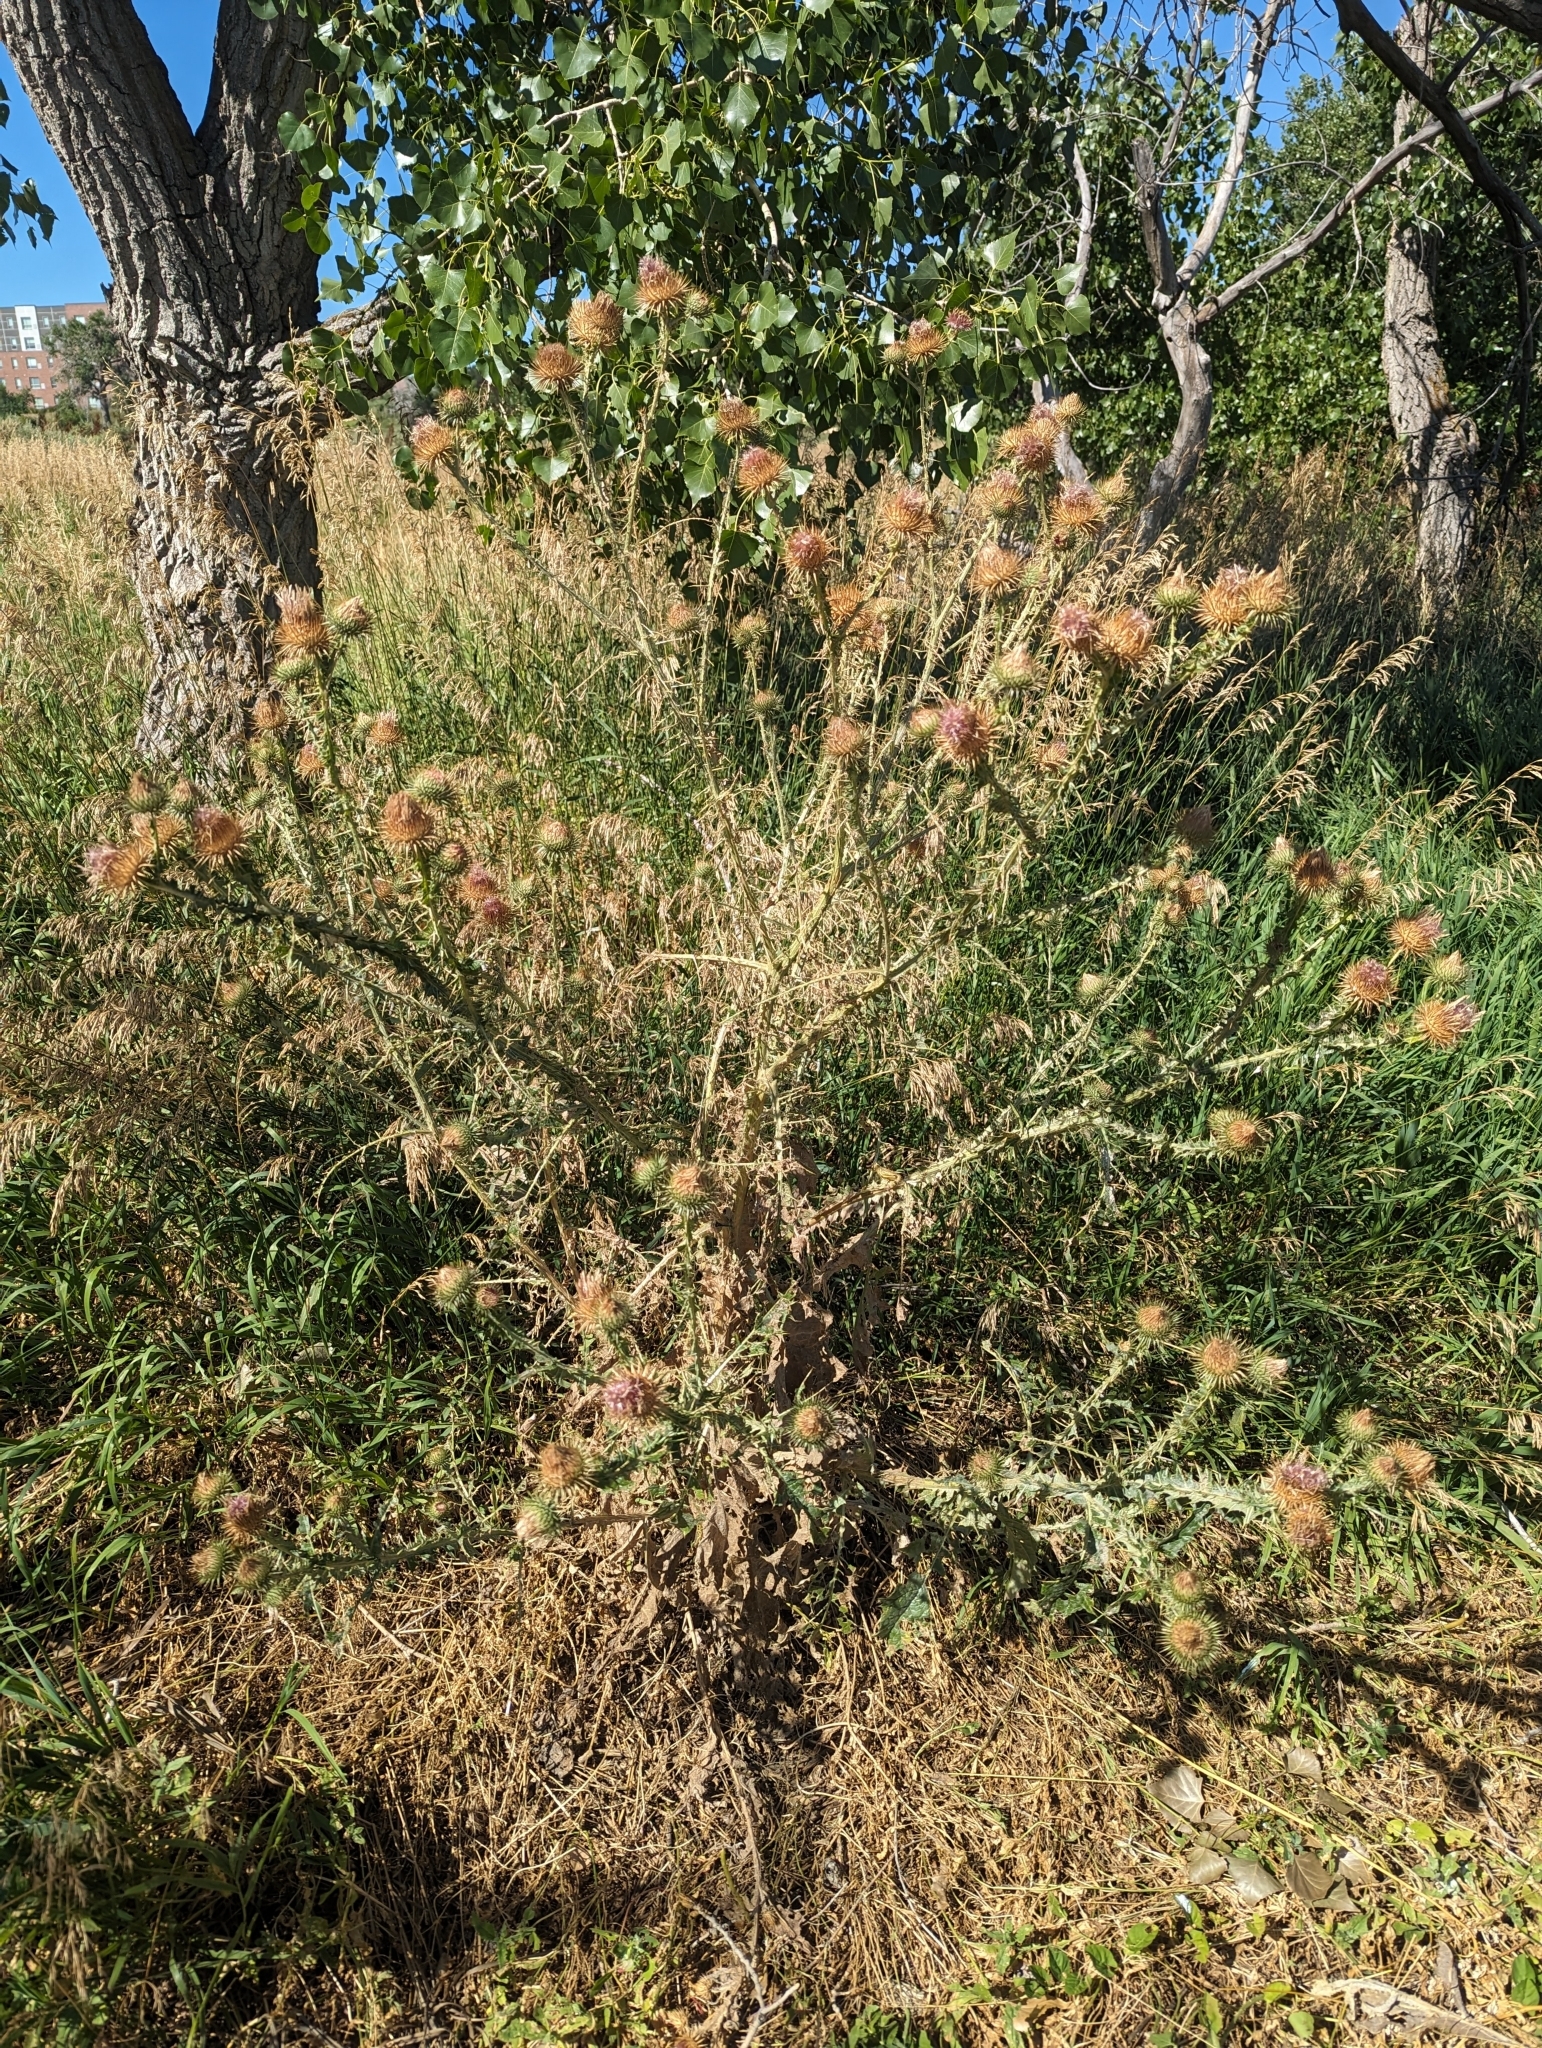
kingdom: Plantae
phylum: Tracheophyta
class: Magnoliopsida
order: Asterales
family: Asteraceae
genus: Onopordum
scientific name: Onopordum acanthium
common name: Scotch thistle
